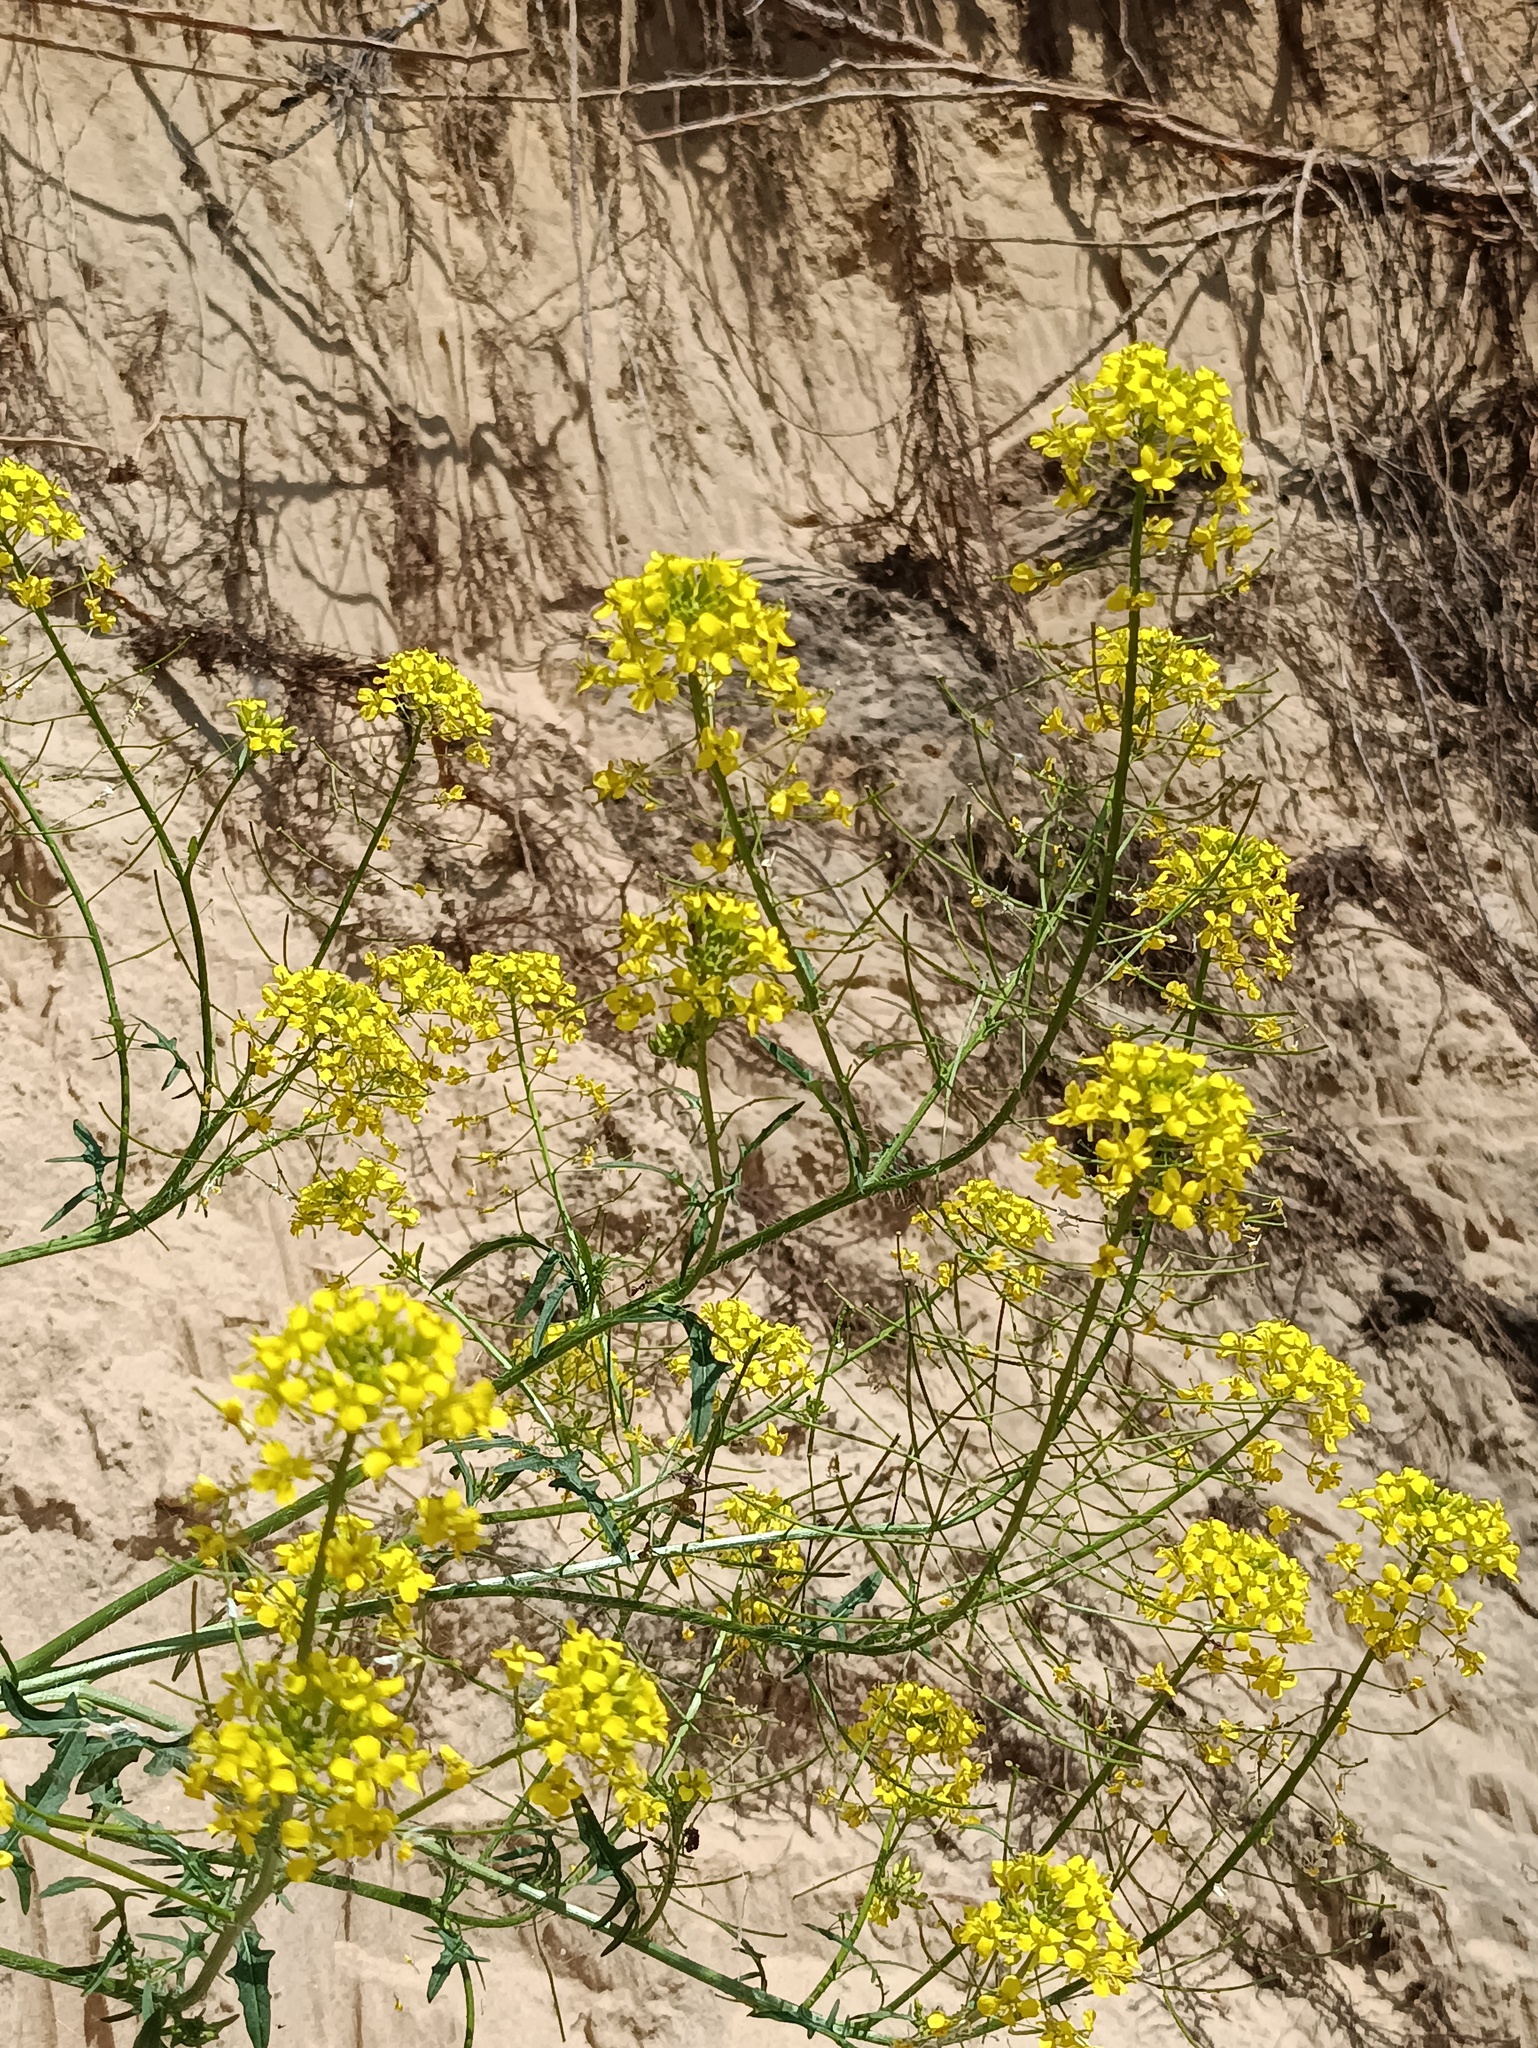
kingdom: Plantae
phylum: Tracheophyta
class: Magnoliopsida
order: Brassicales
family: Brassicaceae
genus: Sisymbrium
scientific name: Sisymbrium loeselii
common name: False london-rocket
